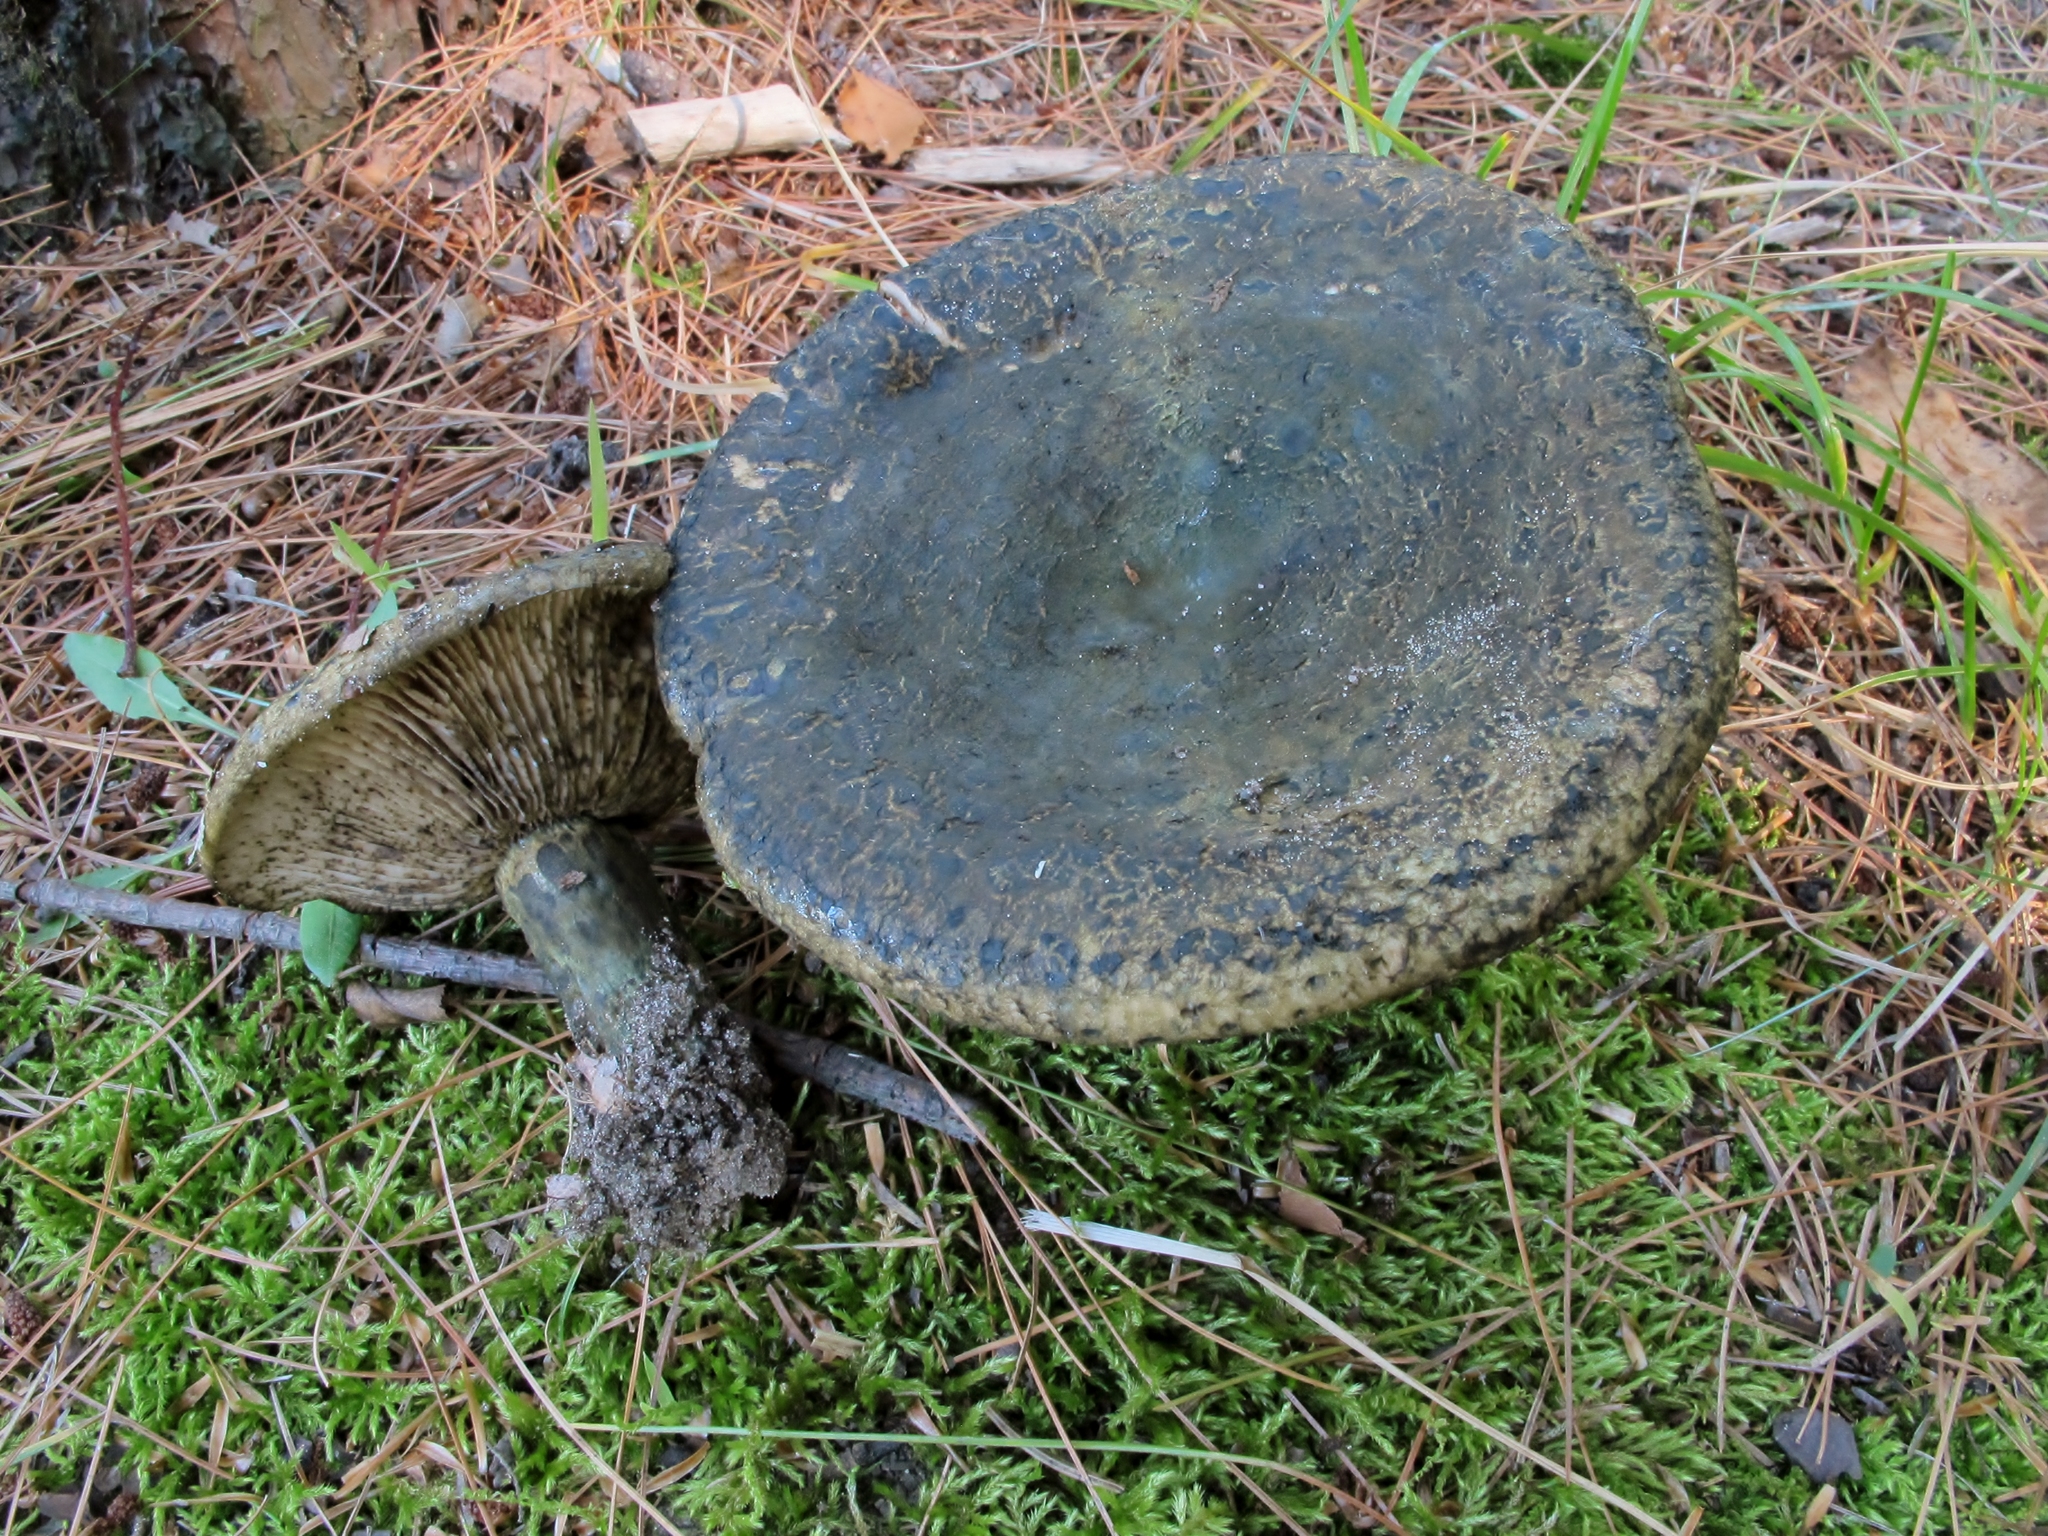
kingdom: Fungi
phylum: Basidiomycota
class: Agaricomycetes
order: Russulales
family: Russulaceae
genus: Lactarius
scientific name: Lactarius atroviridis
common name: Dark-spotted milkcap
